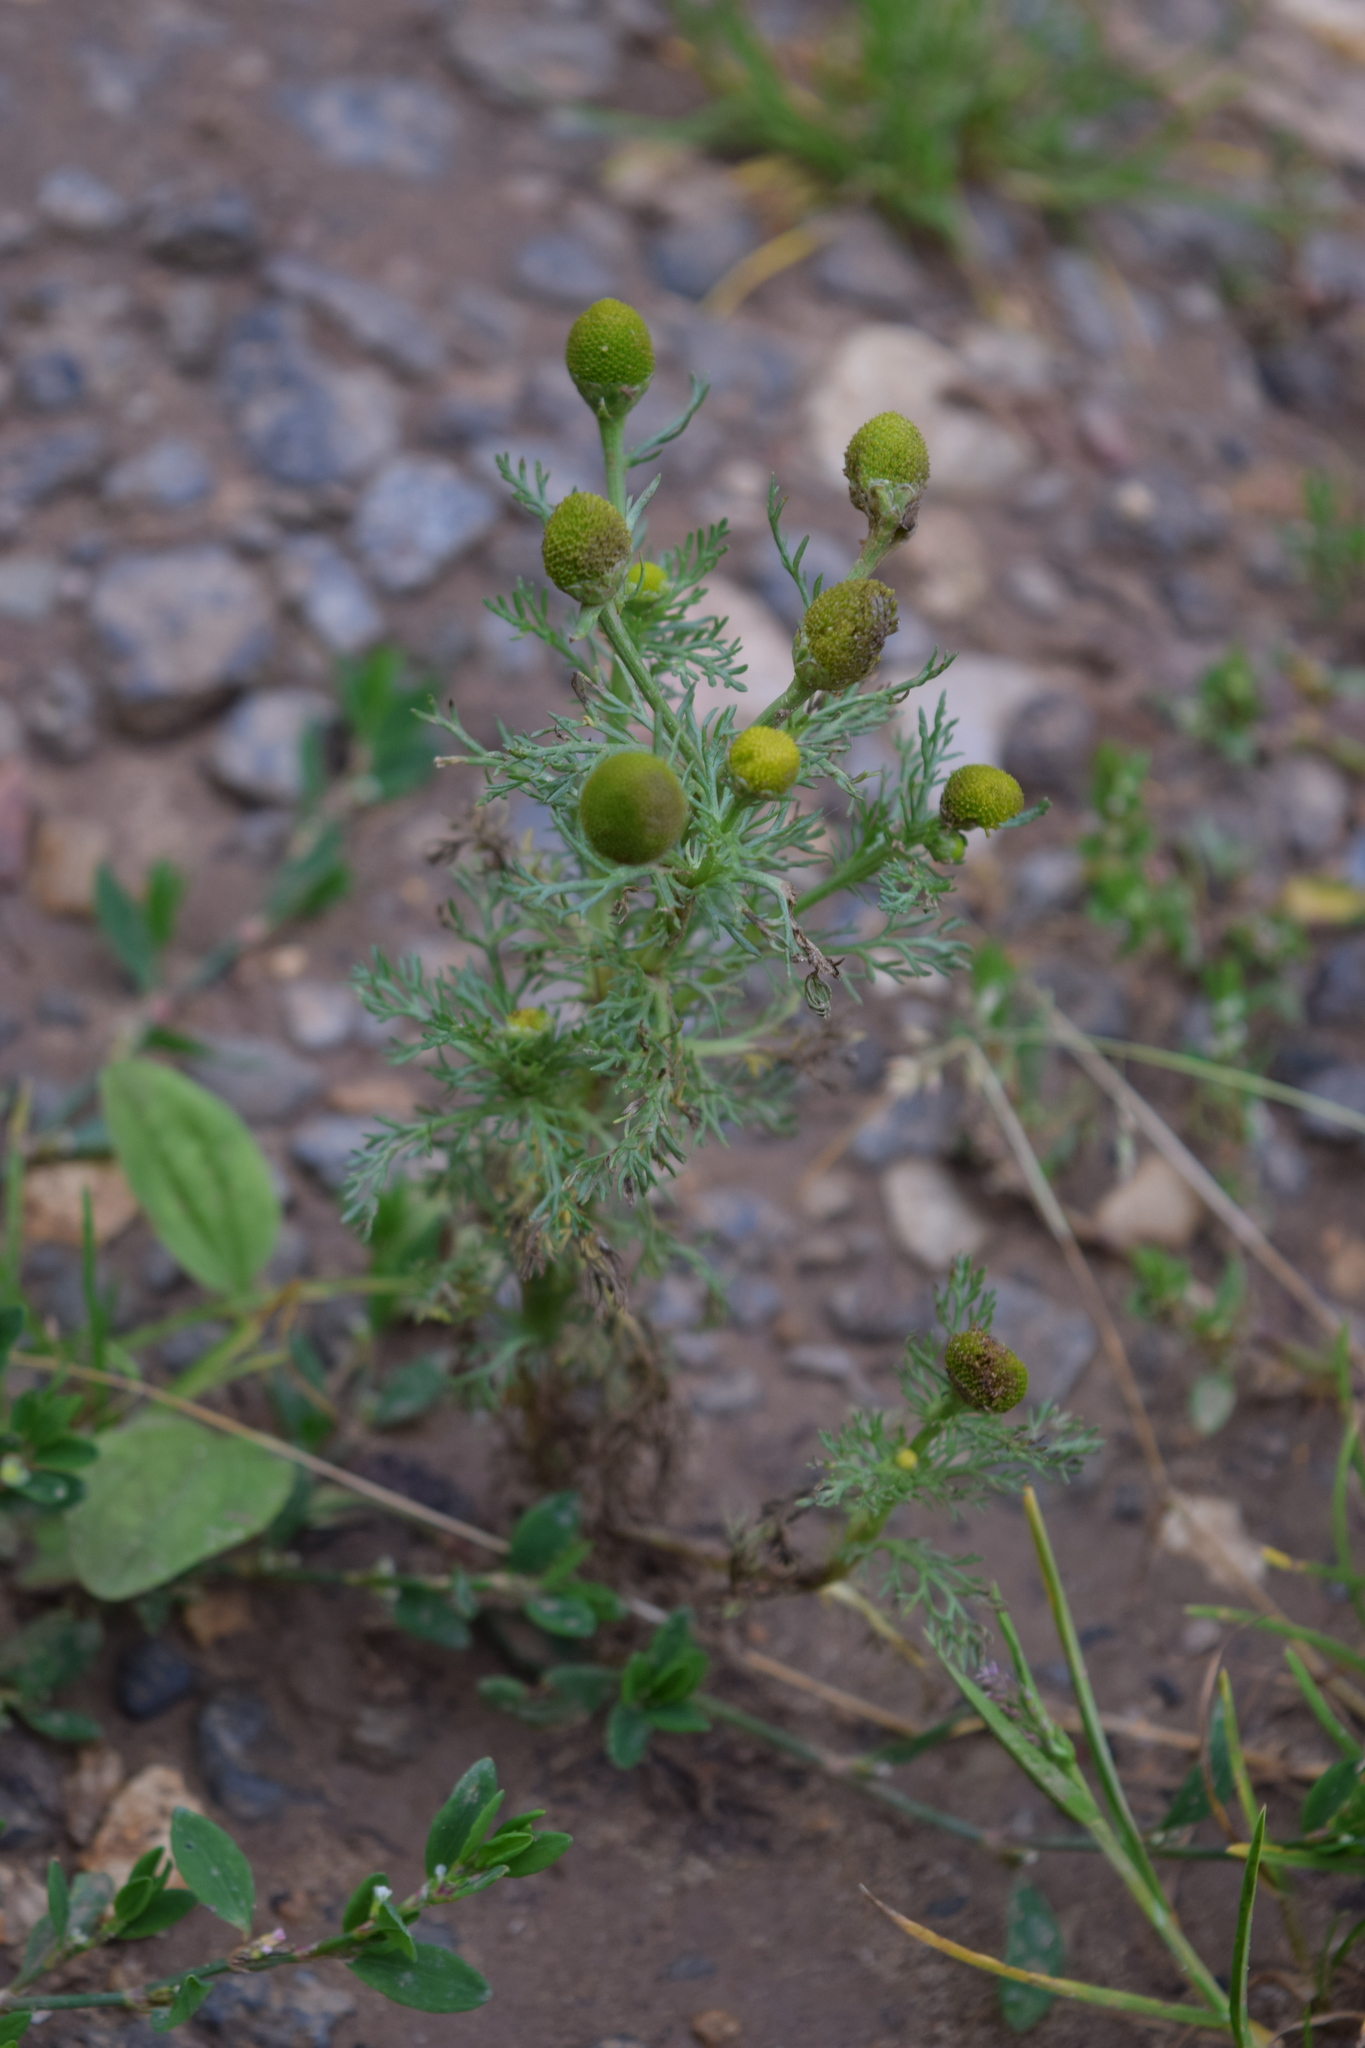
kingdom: Plantae
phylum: Tracheophyta
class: Magnoliopsida
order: Asterales
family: Asteraceae
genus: Matricaria
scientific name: Matricaria discoidea
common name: Disc mayweed
